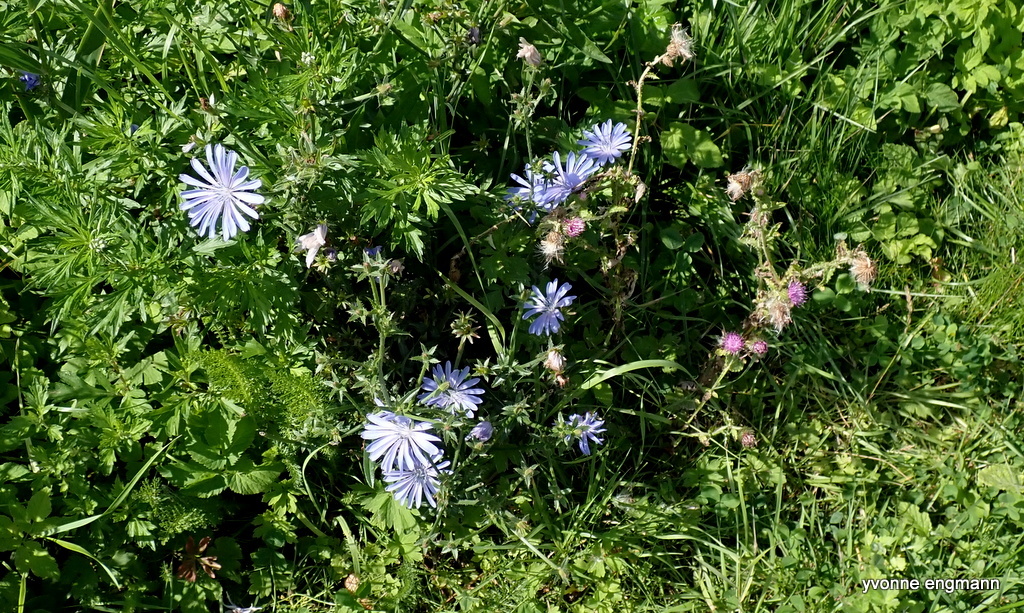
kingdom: Plantae
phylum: Tracheophyta
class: Magnoliopsida
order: Asterales
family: Asteraceae
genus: Cichorium
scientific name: Cichorium intybus
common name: Chicory
